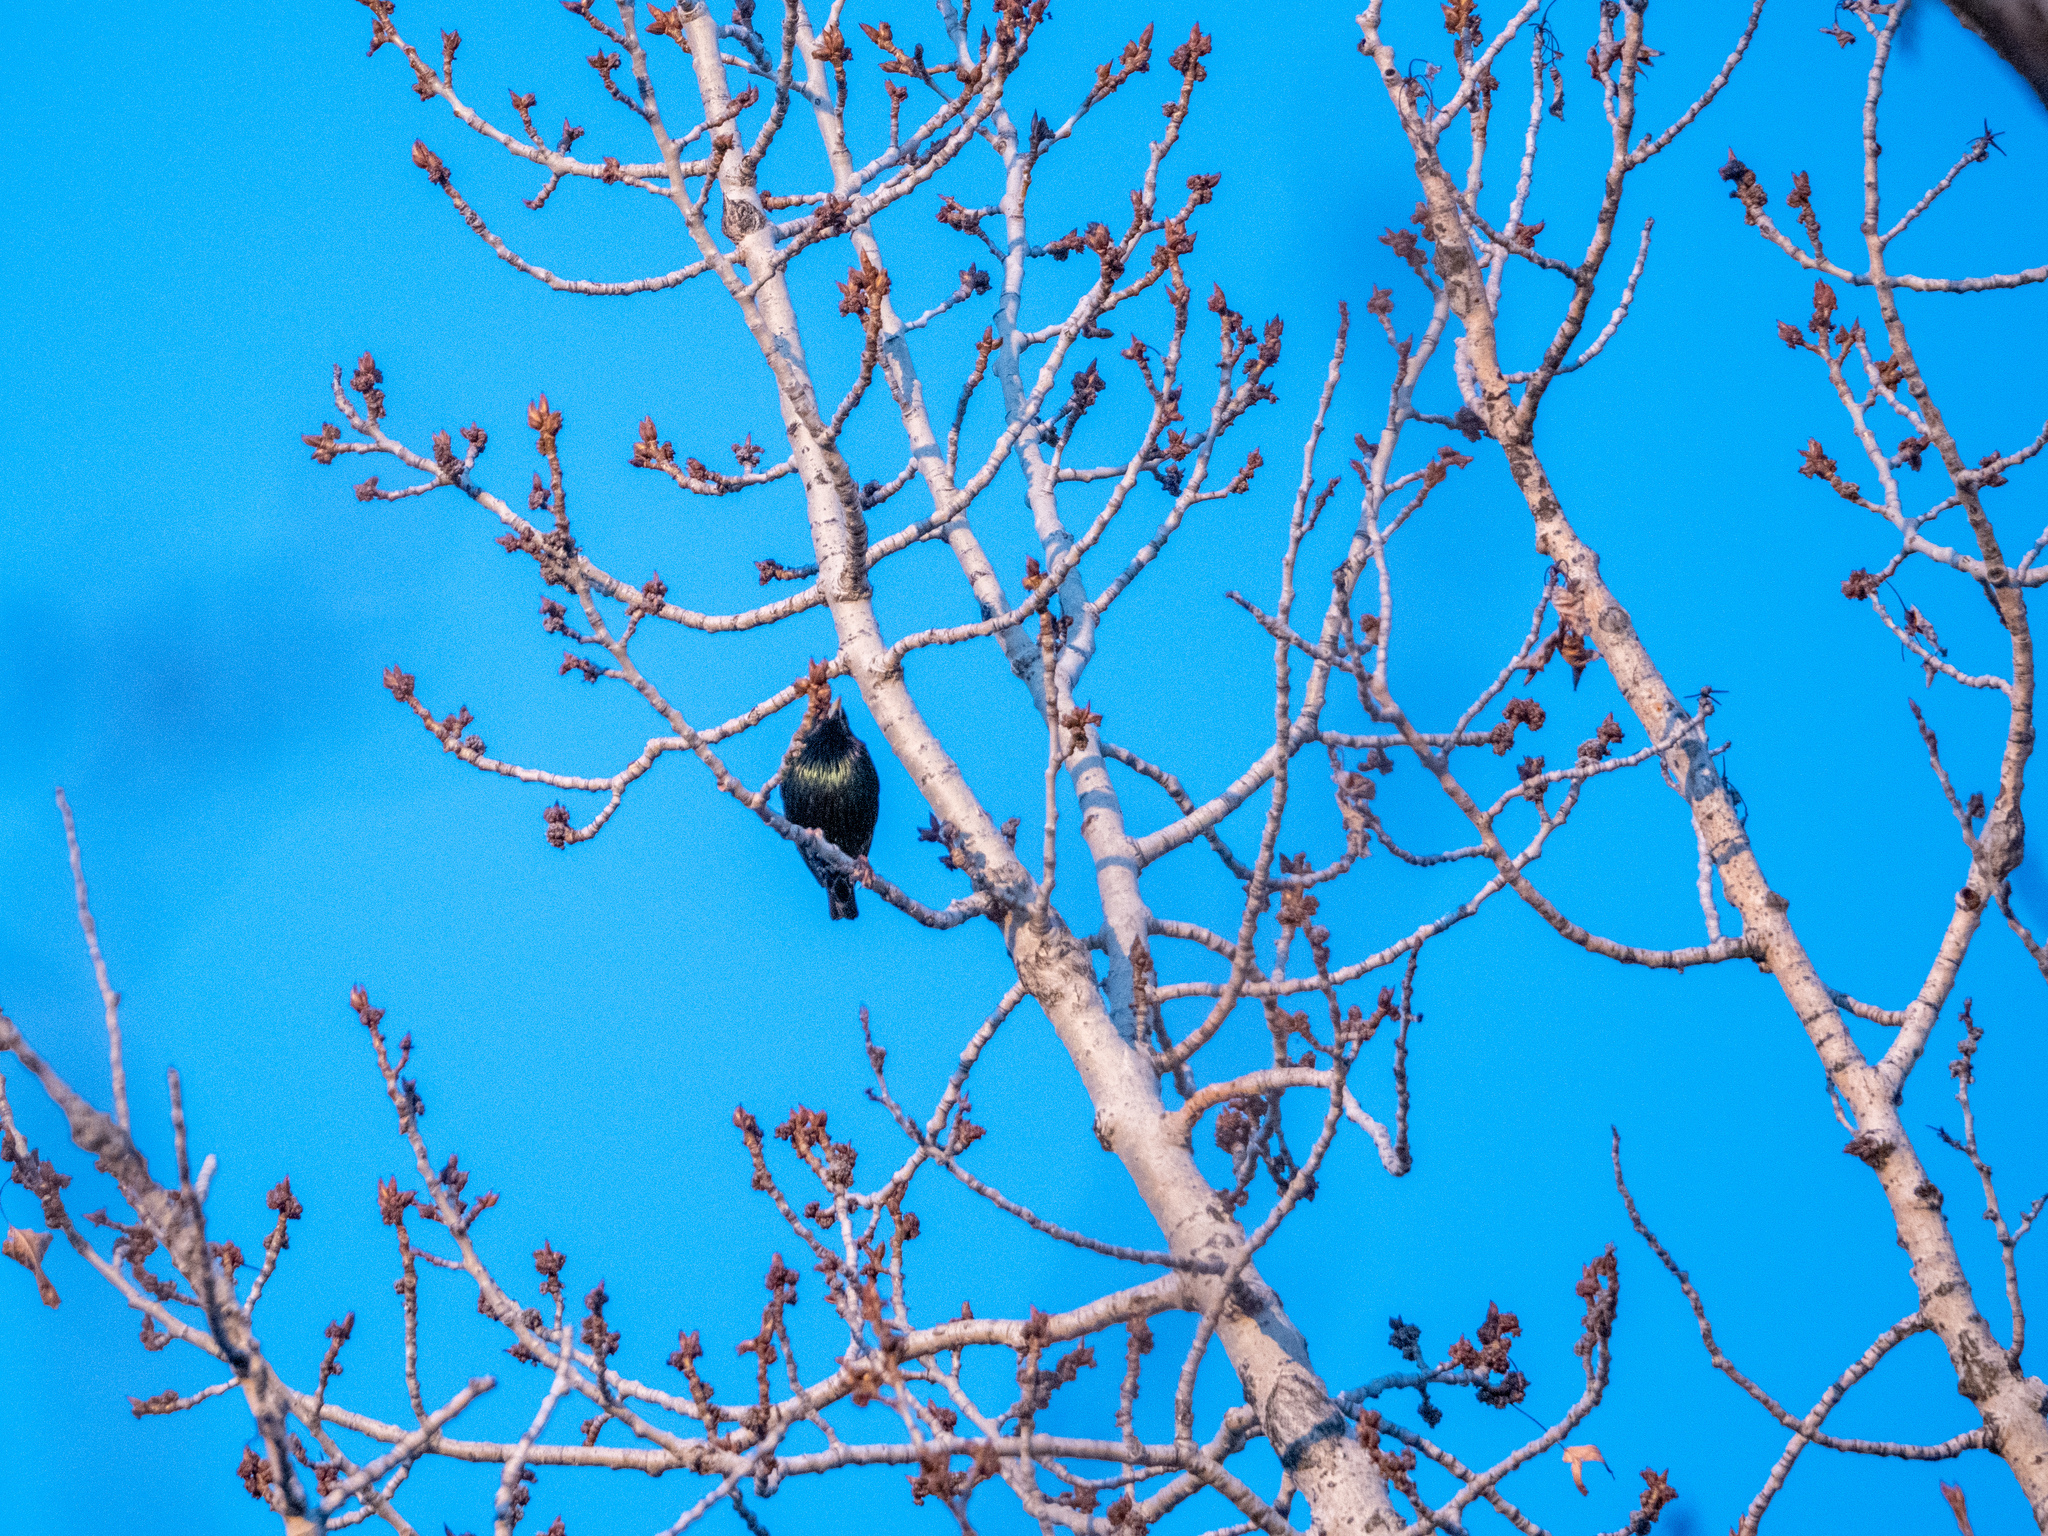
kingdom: Animalia
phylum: Chordata
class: Aves
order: Passeriformes
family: Sturnidae
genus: Sturnus
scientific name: Sturnus vulgaris
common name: Common starling
